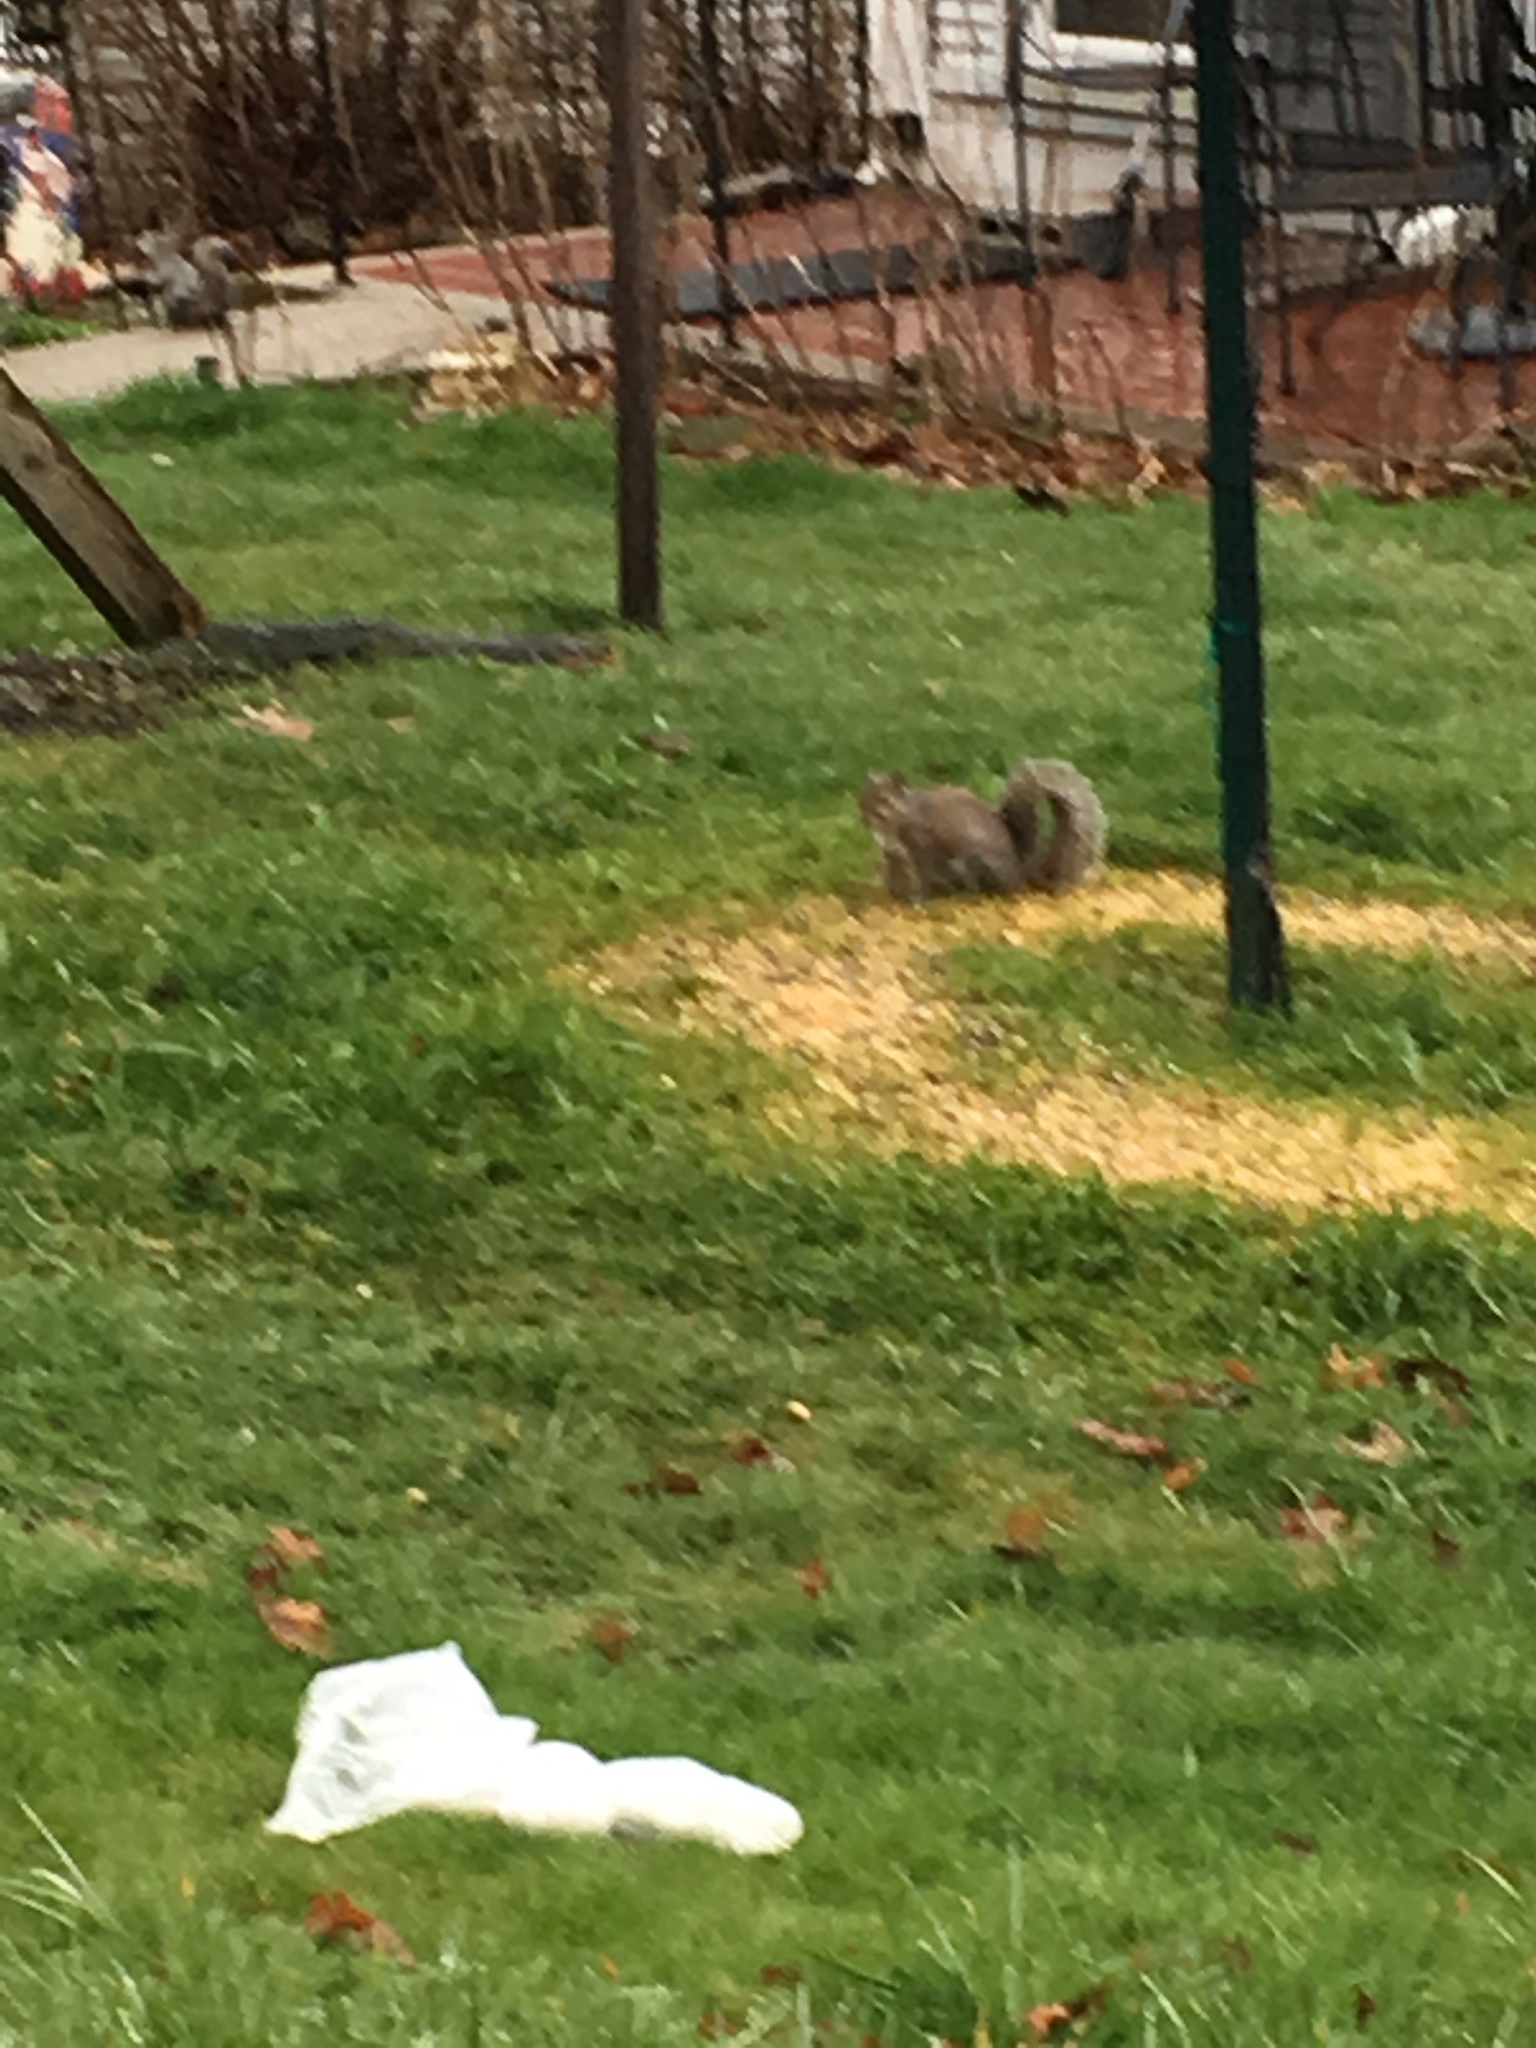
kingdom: Animalia
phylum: Chordata
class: Mammalia
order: Rodentia
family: Sciuridae
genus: Sciurus
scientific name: Sciurus carolinensis
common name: Eastern gray squirrel
